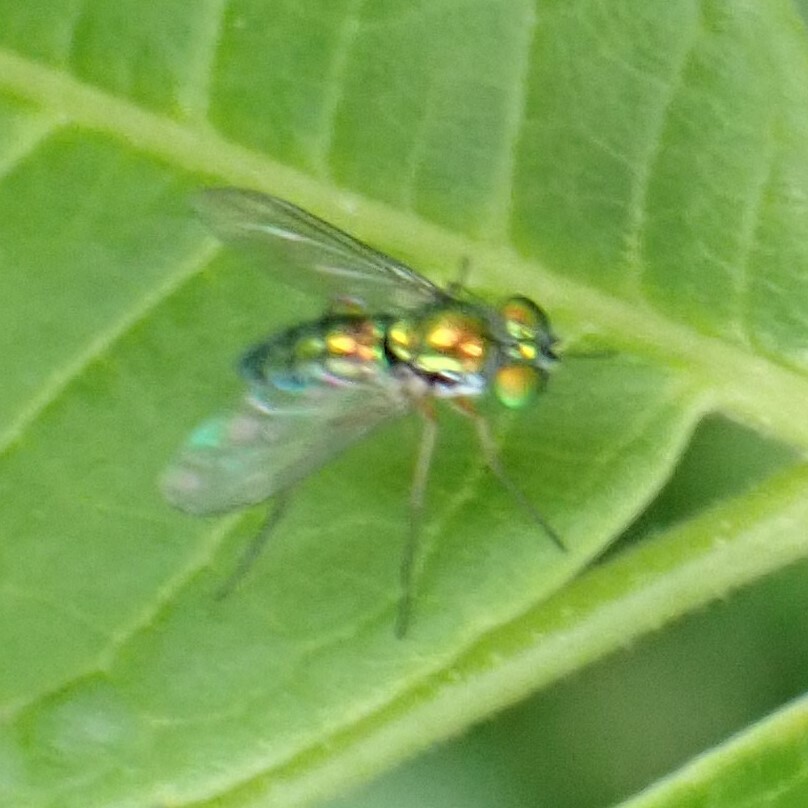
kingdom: Animalia
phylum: Arthropoda
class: Insecta
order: Diptera
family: Dolichopodidae
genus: Condylostylus
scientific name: Condylostylus
